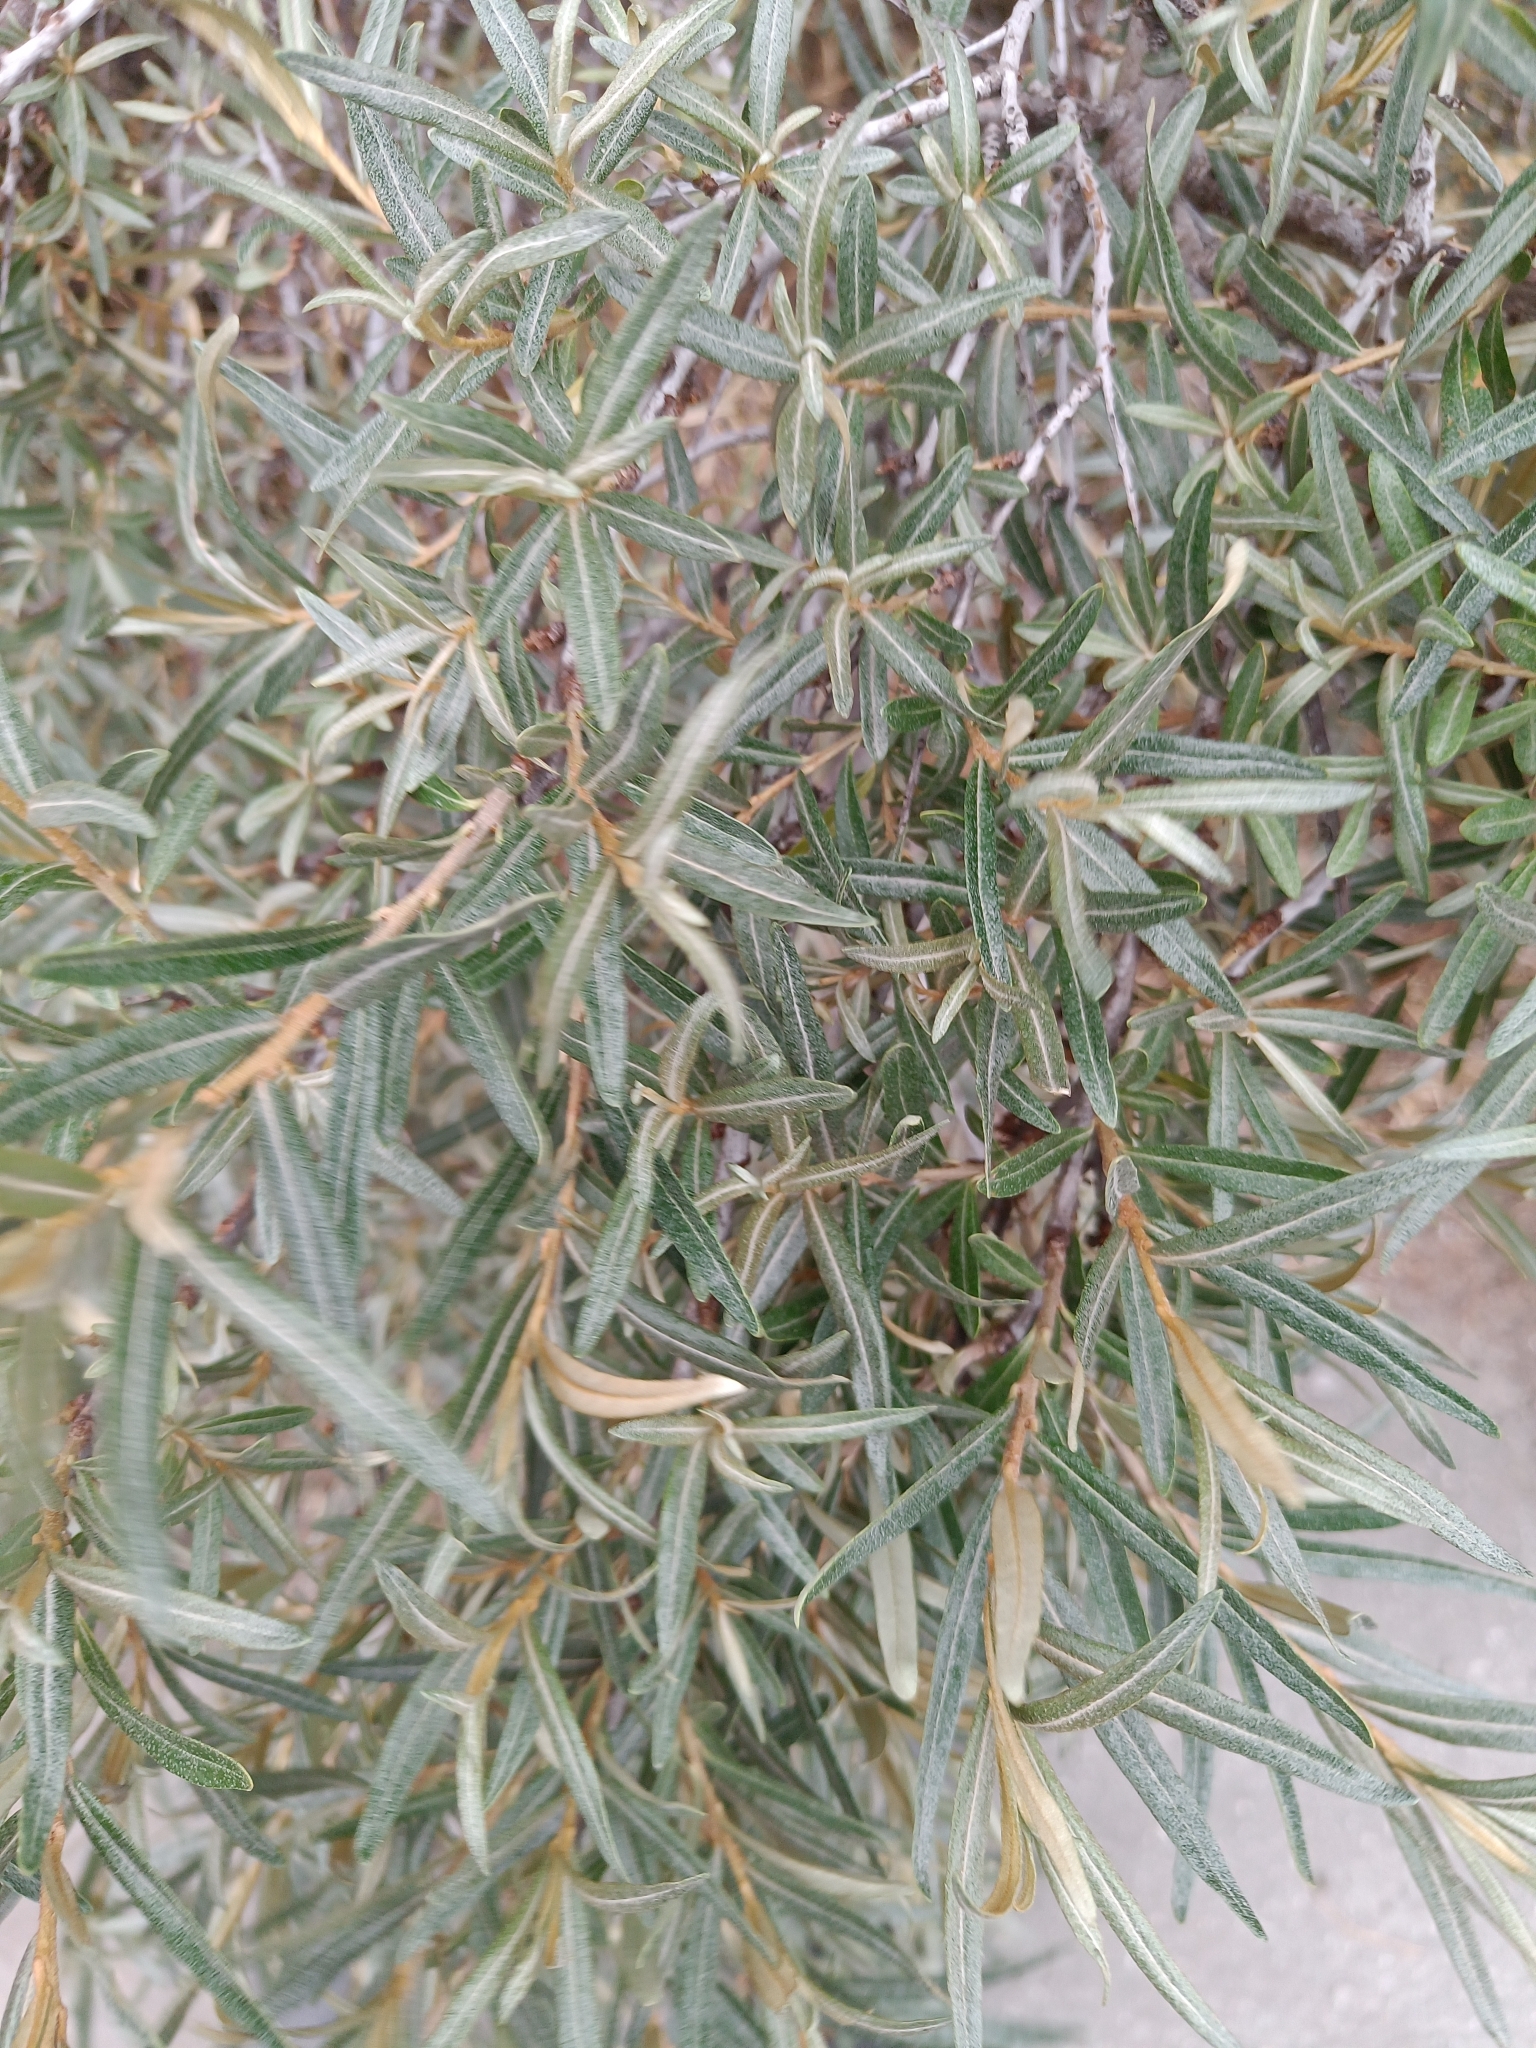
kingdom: Plantae
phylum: Tracheophyta
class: Magnoliopsida
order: Rosales
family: Elaeagnaceae
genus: Hippophae
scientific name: Hippophae rhamnoides
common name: Sea-buckthorn
